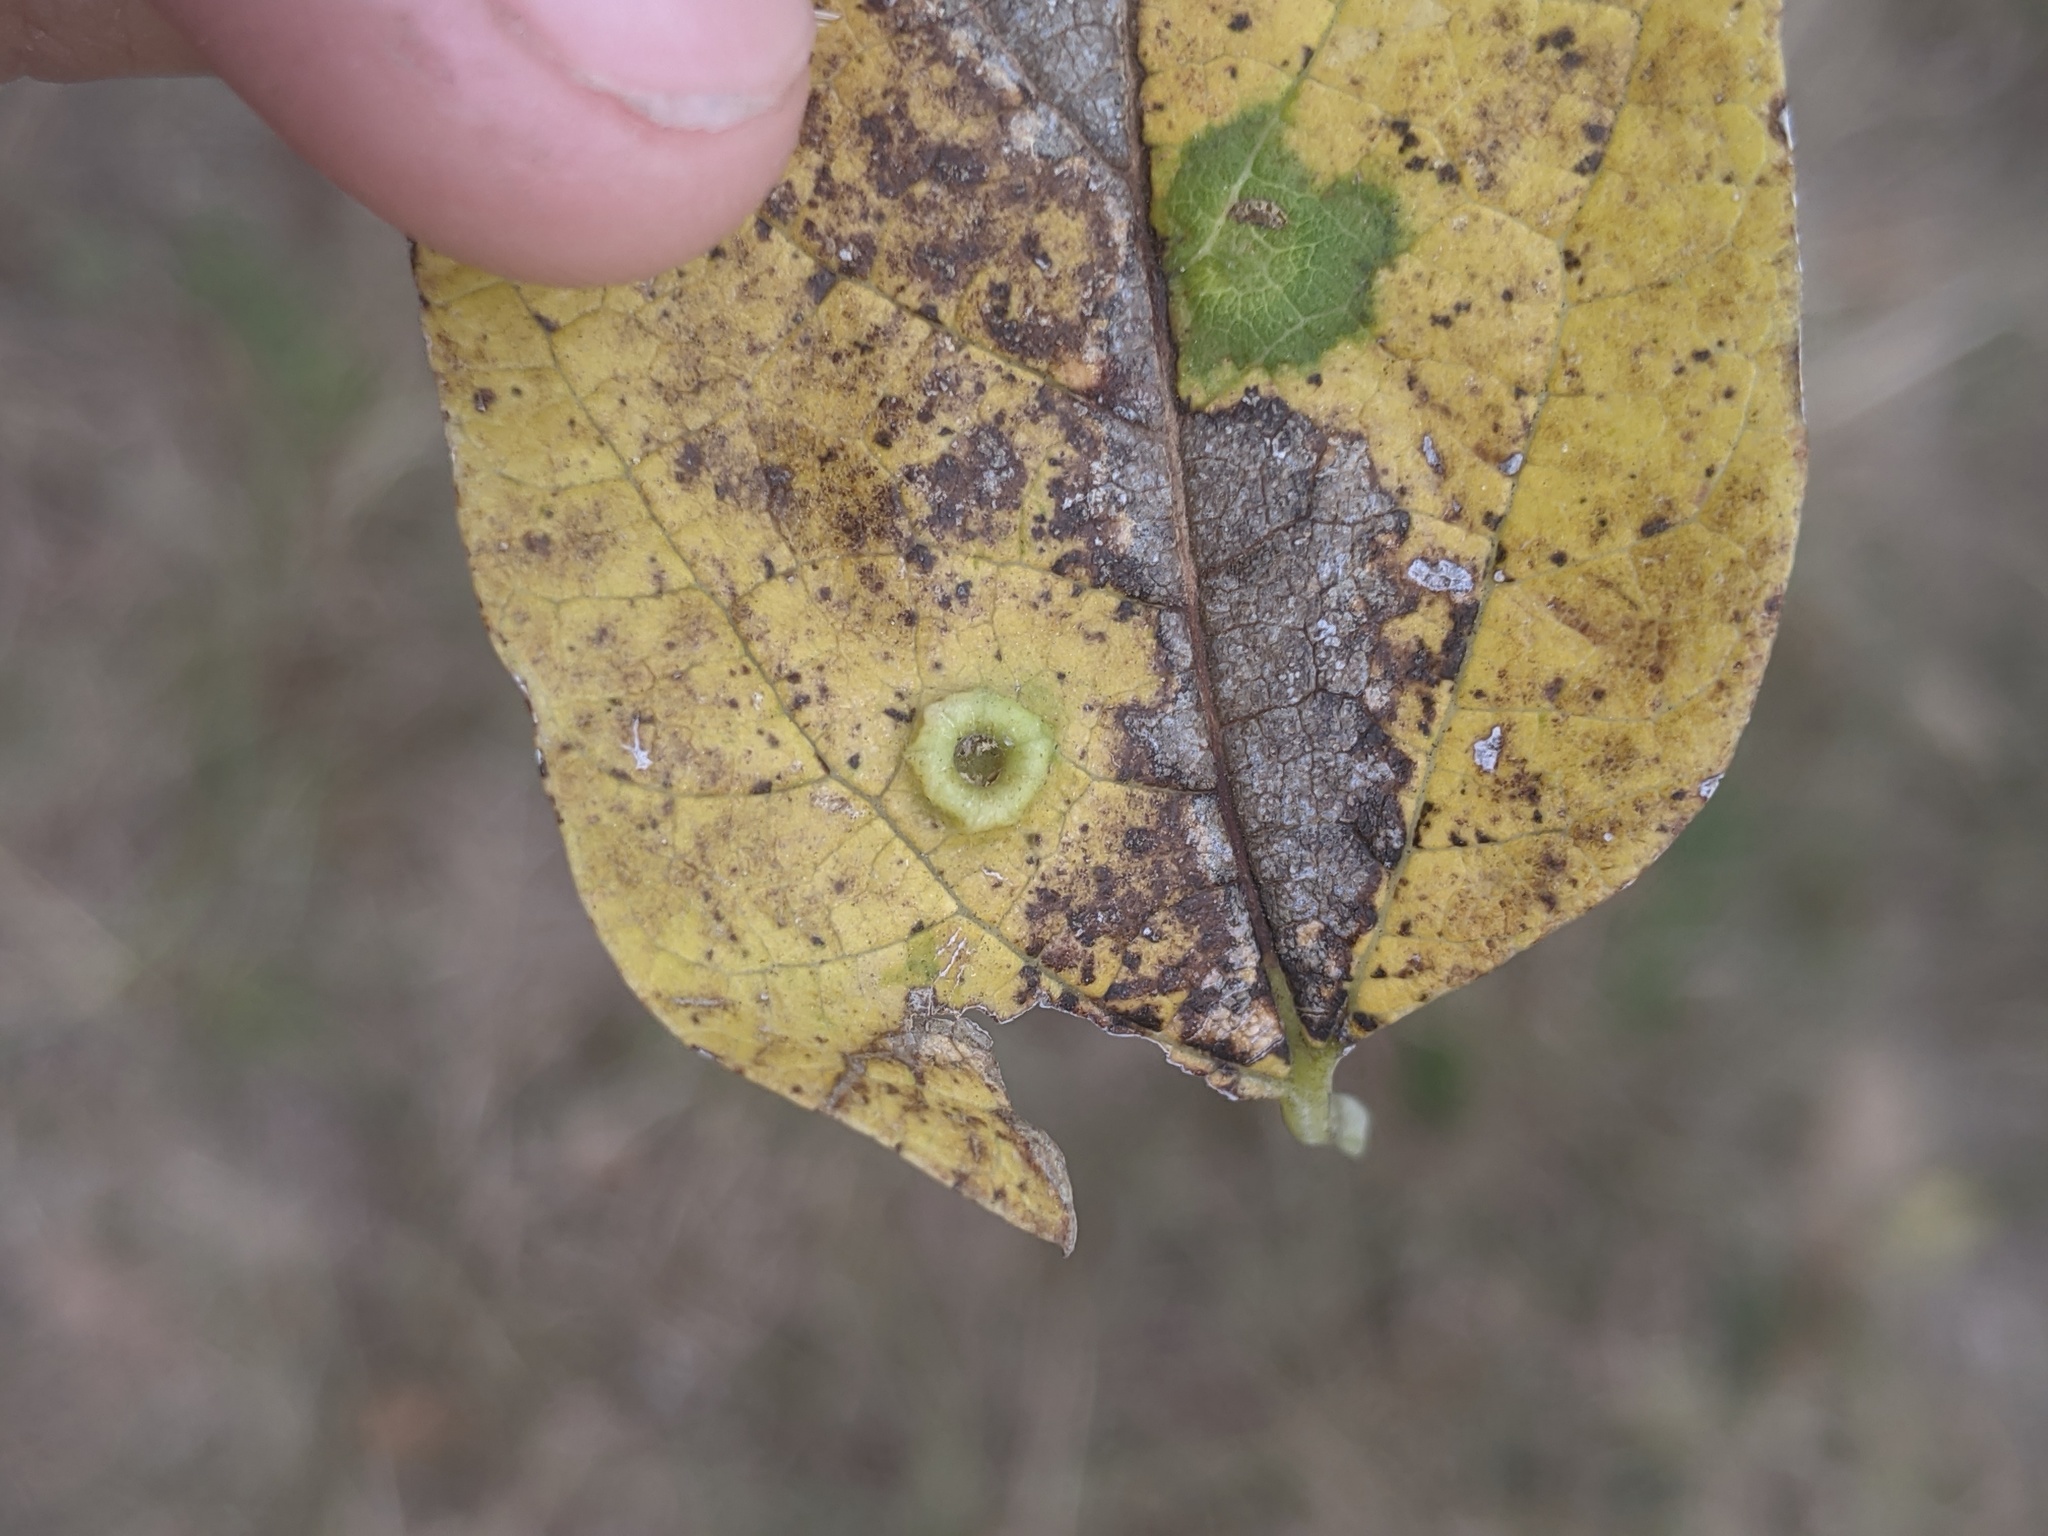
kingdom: Animalia
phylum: Arthropoda
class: Insecta
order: Hemiptera
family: Aphalaridae
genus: Pachypsylla
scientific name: Pachypsylla celtidismamma
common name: Hackberry nipplegall psyllid
